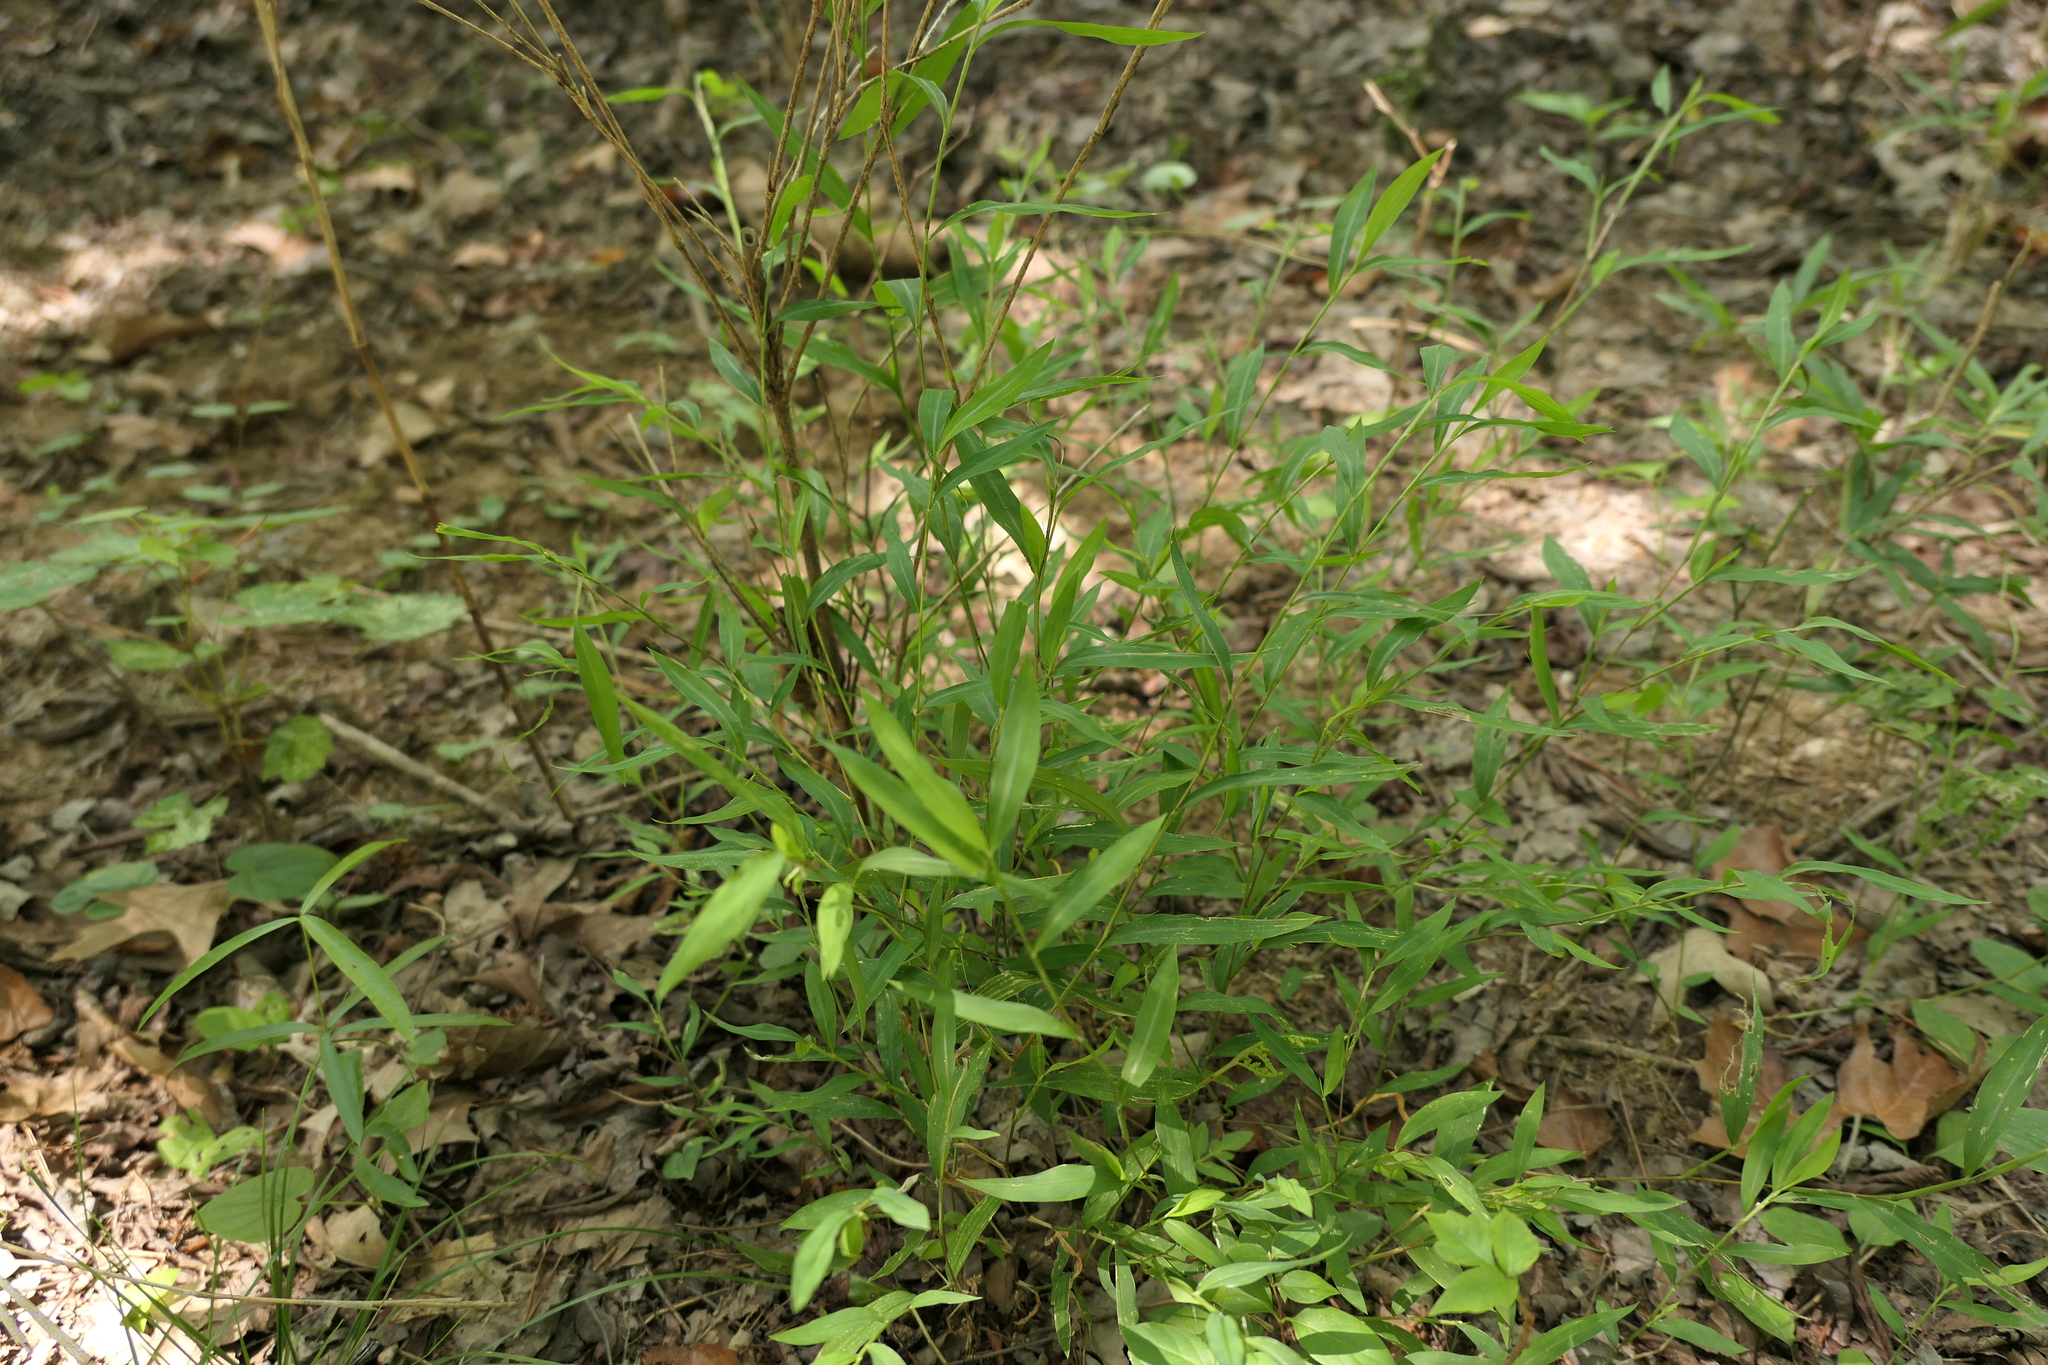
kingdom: Plantae
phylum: Tracheophyta
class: Liliopsida
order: Poales
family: Poaceae
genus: Microstegium
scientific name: Microstegium vimineum
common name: Japanese stiltgrass
